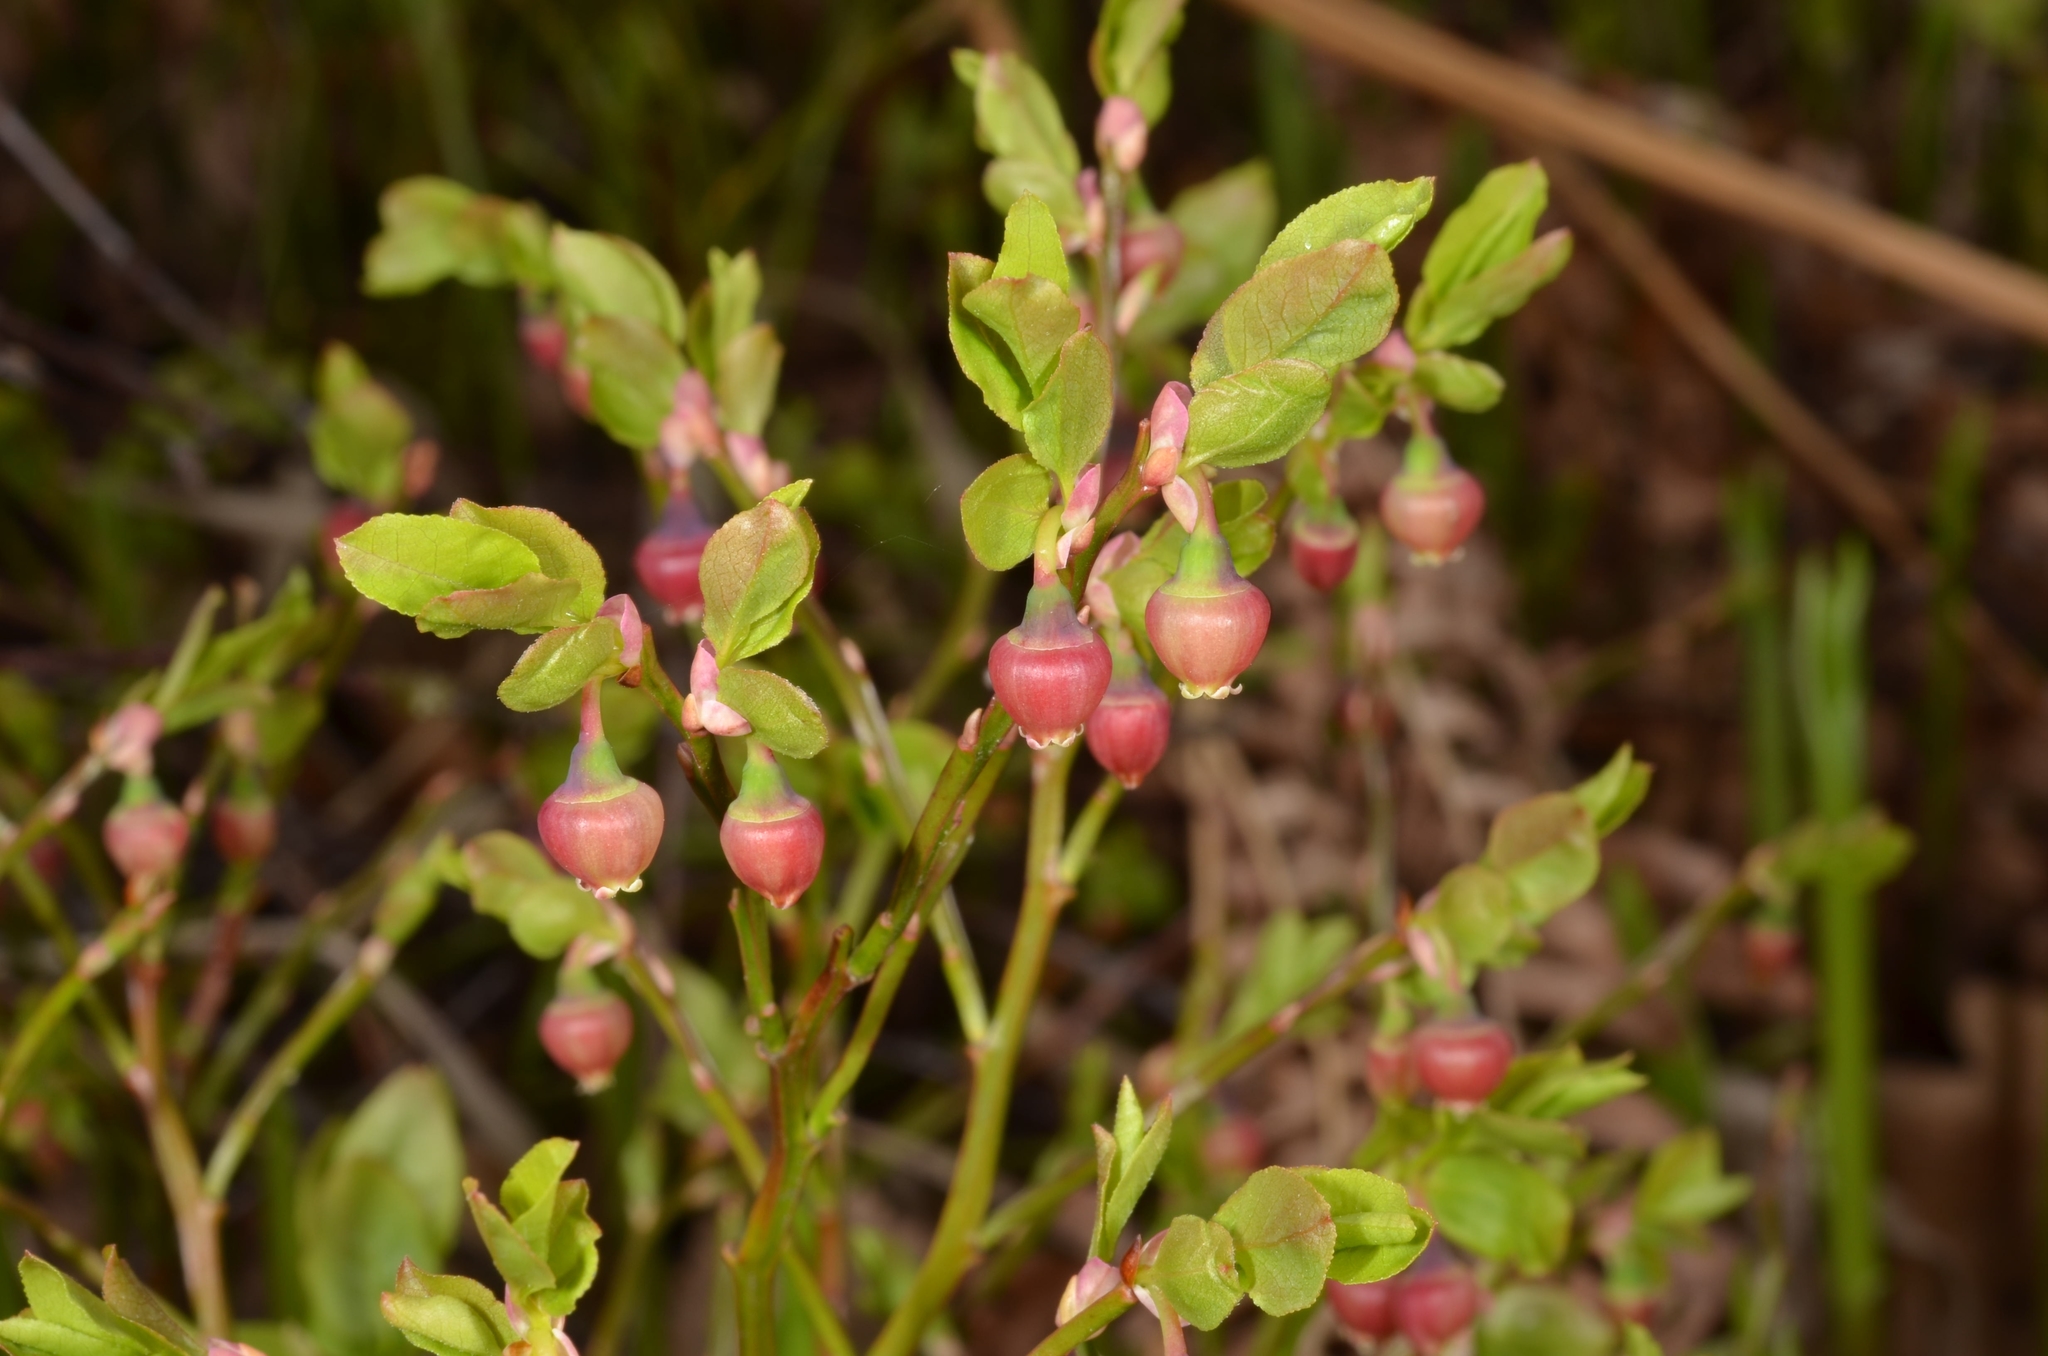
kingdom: Plantae
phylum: Tracheophyta
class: Magnoliopsida
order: Ericales
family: Ericaceae
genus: Vaccinium
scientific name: Vaccinium myrtillus
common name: Bilberry
